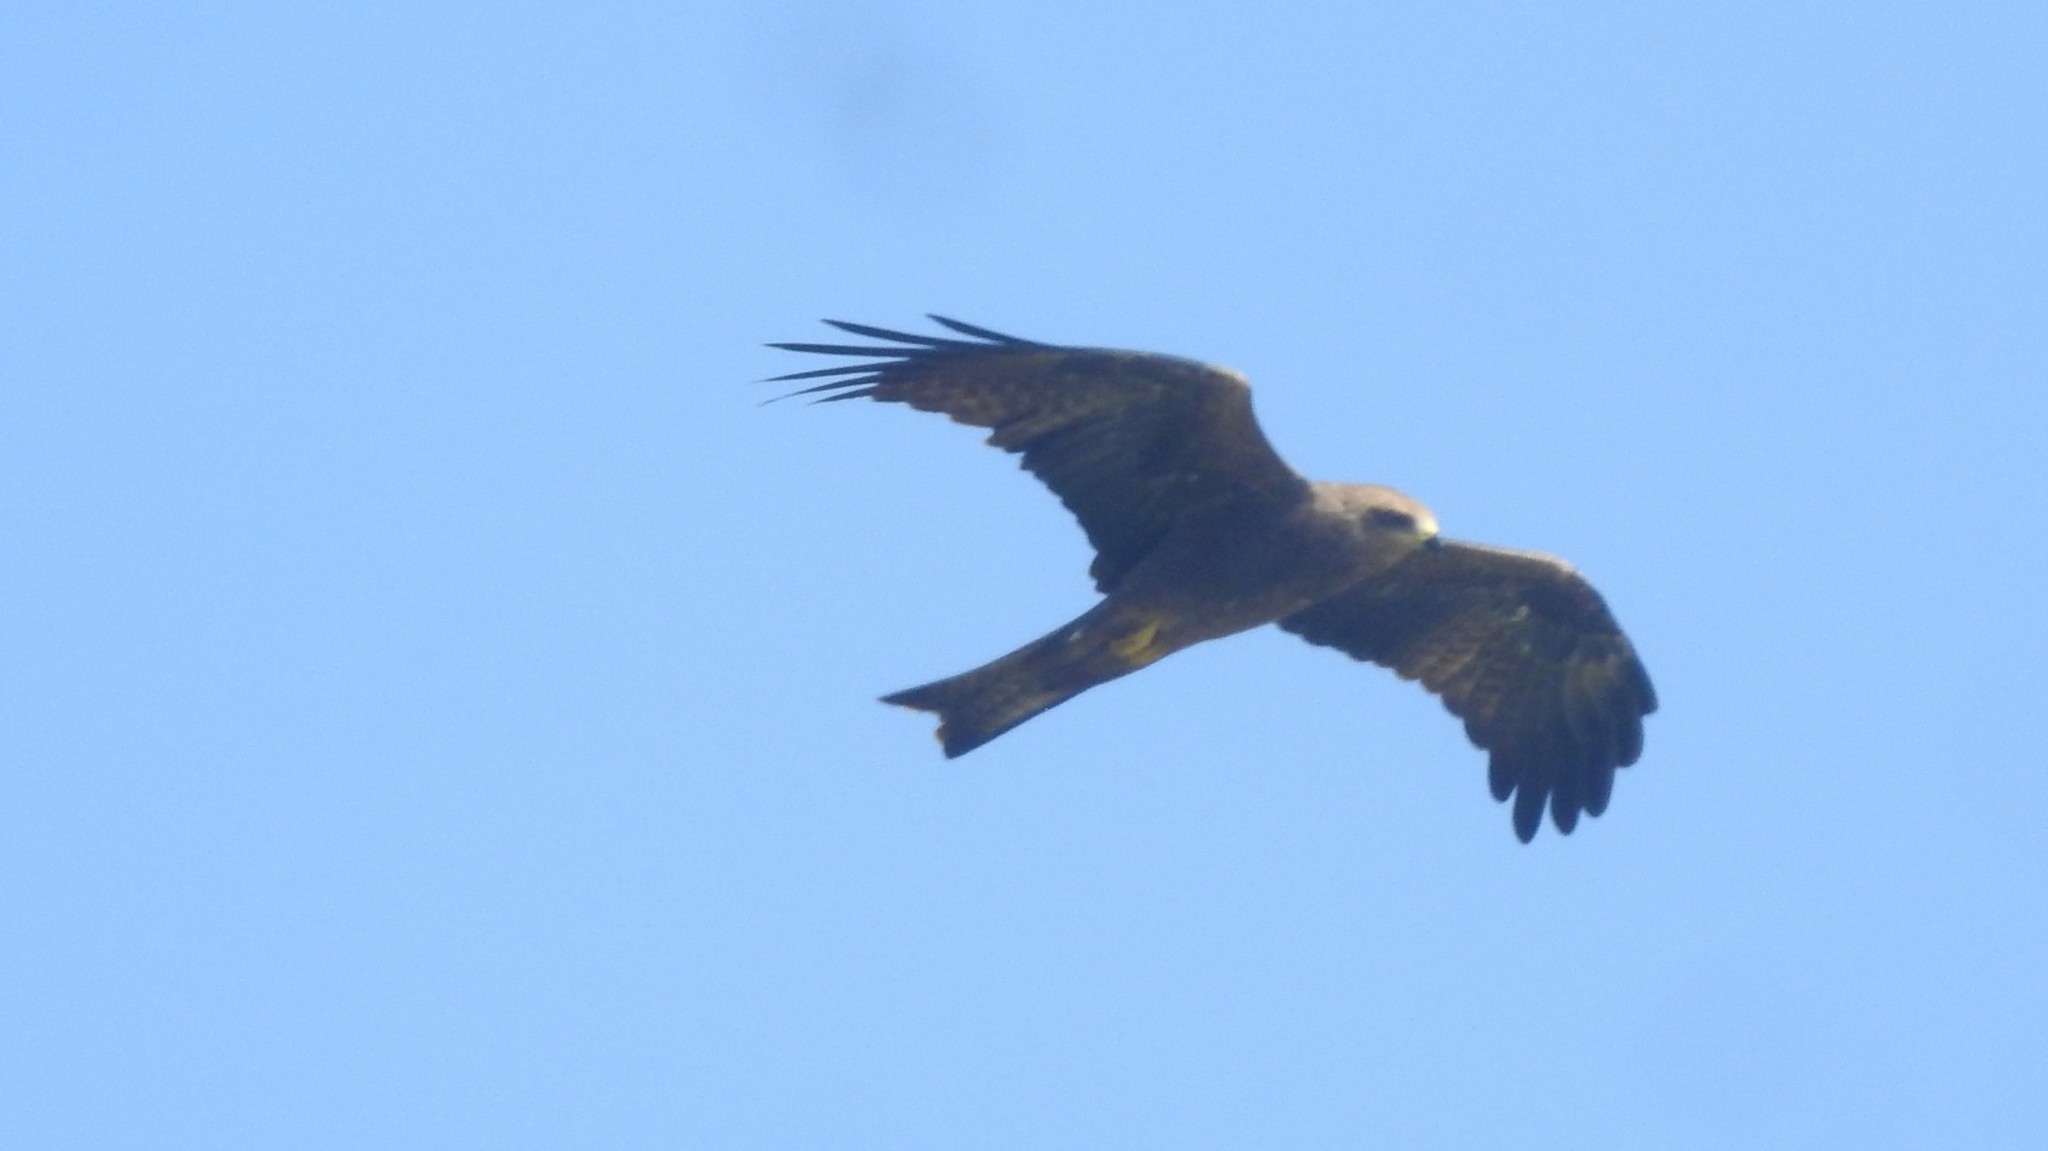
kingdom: Animalia
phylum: Chordata
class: Aves
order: Accipitriformes
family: Accipitridae
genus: Milvus
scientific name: Milvus migrans
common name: Black kite
